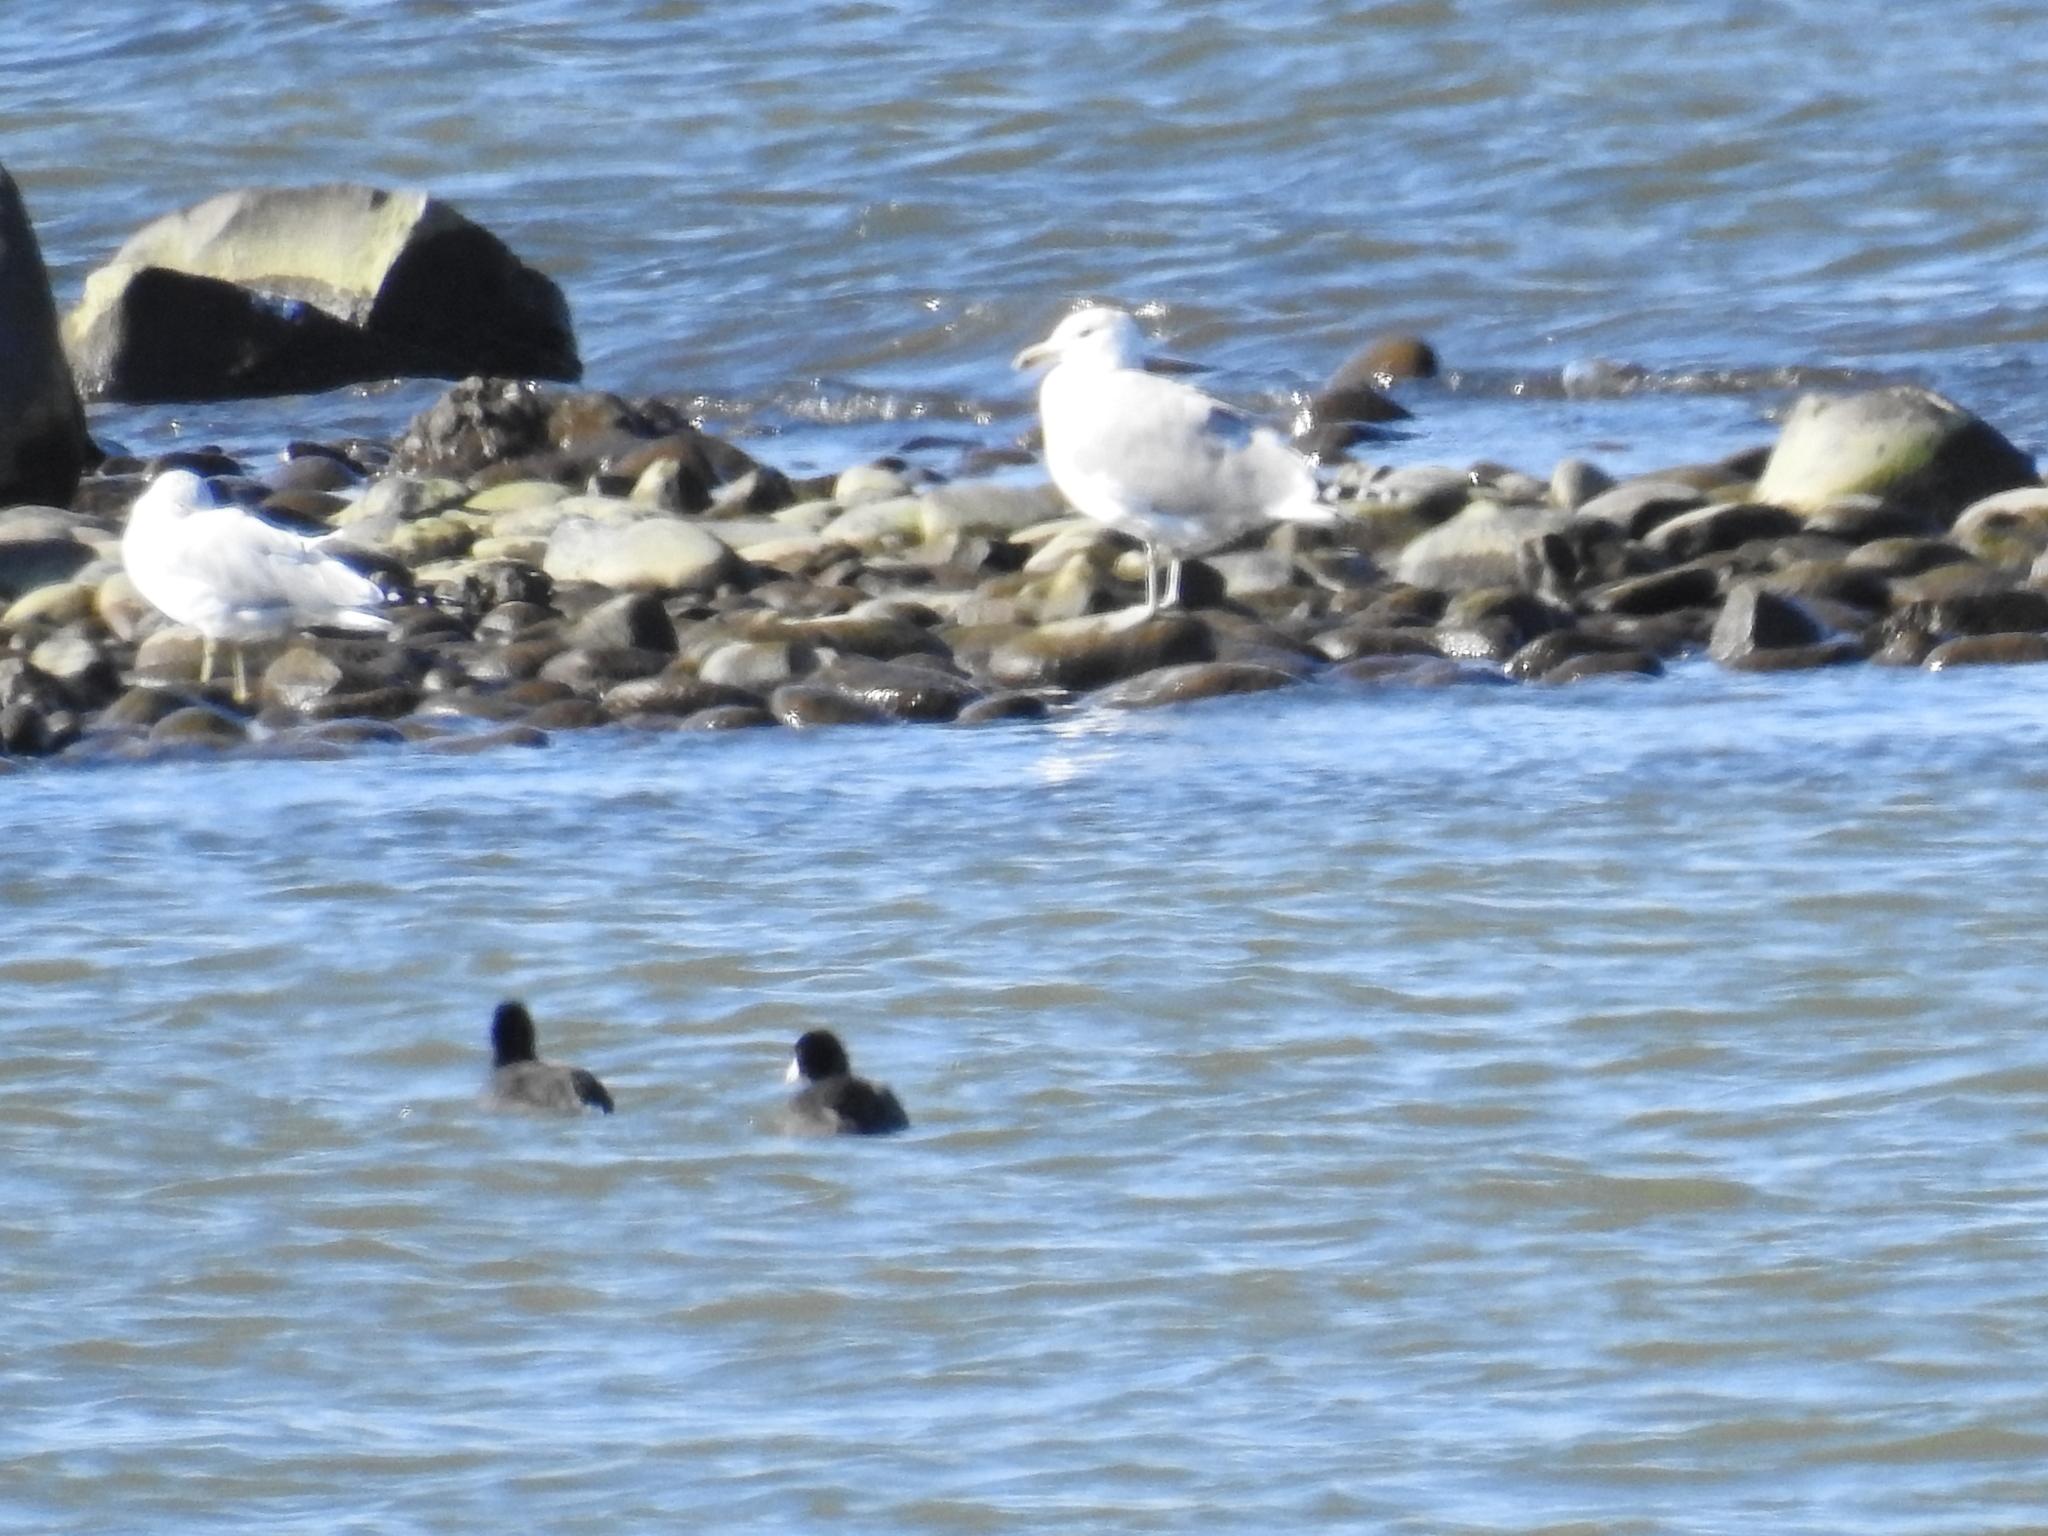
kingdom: Animalia
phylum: Chordata
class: Aves
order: Gruiformes
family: Rallidae
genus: Fulica
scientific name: Fulica americana
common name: American coot
